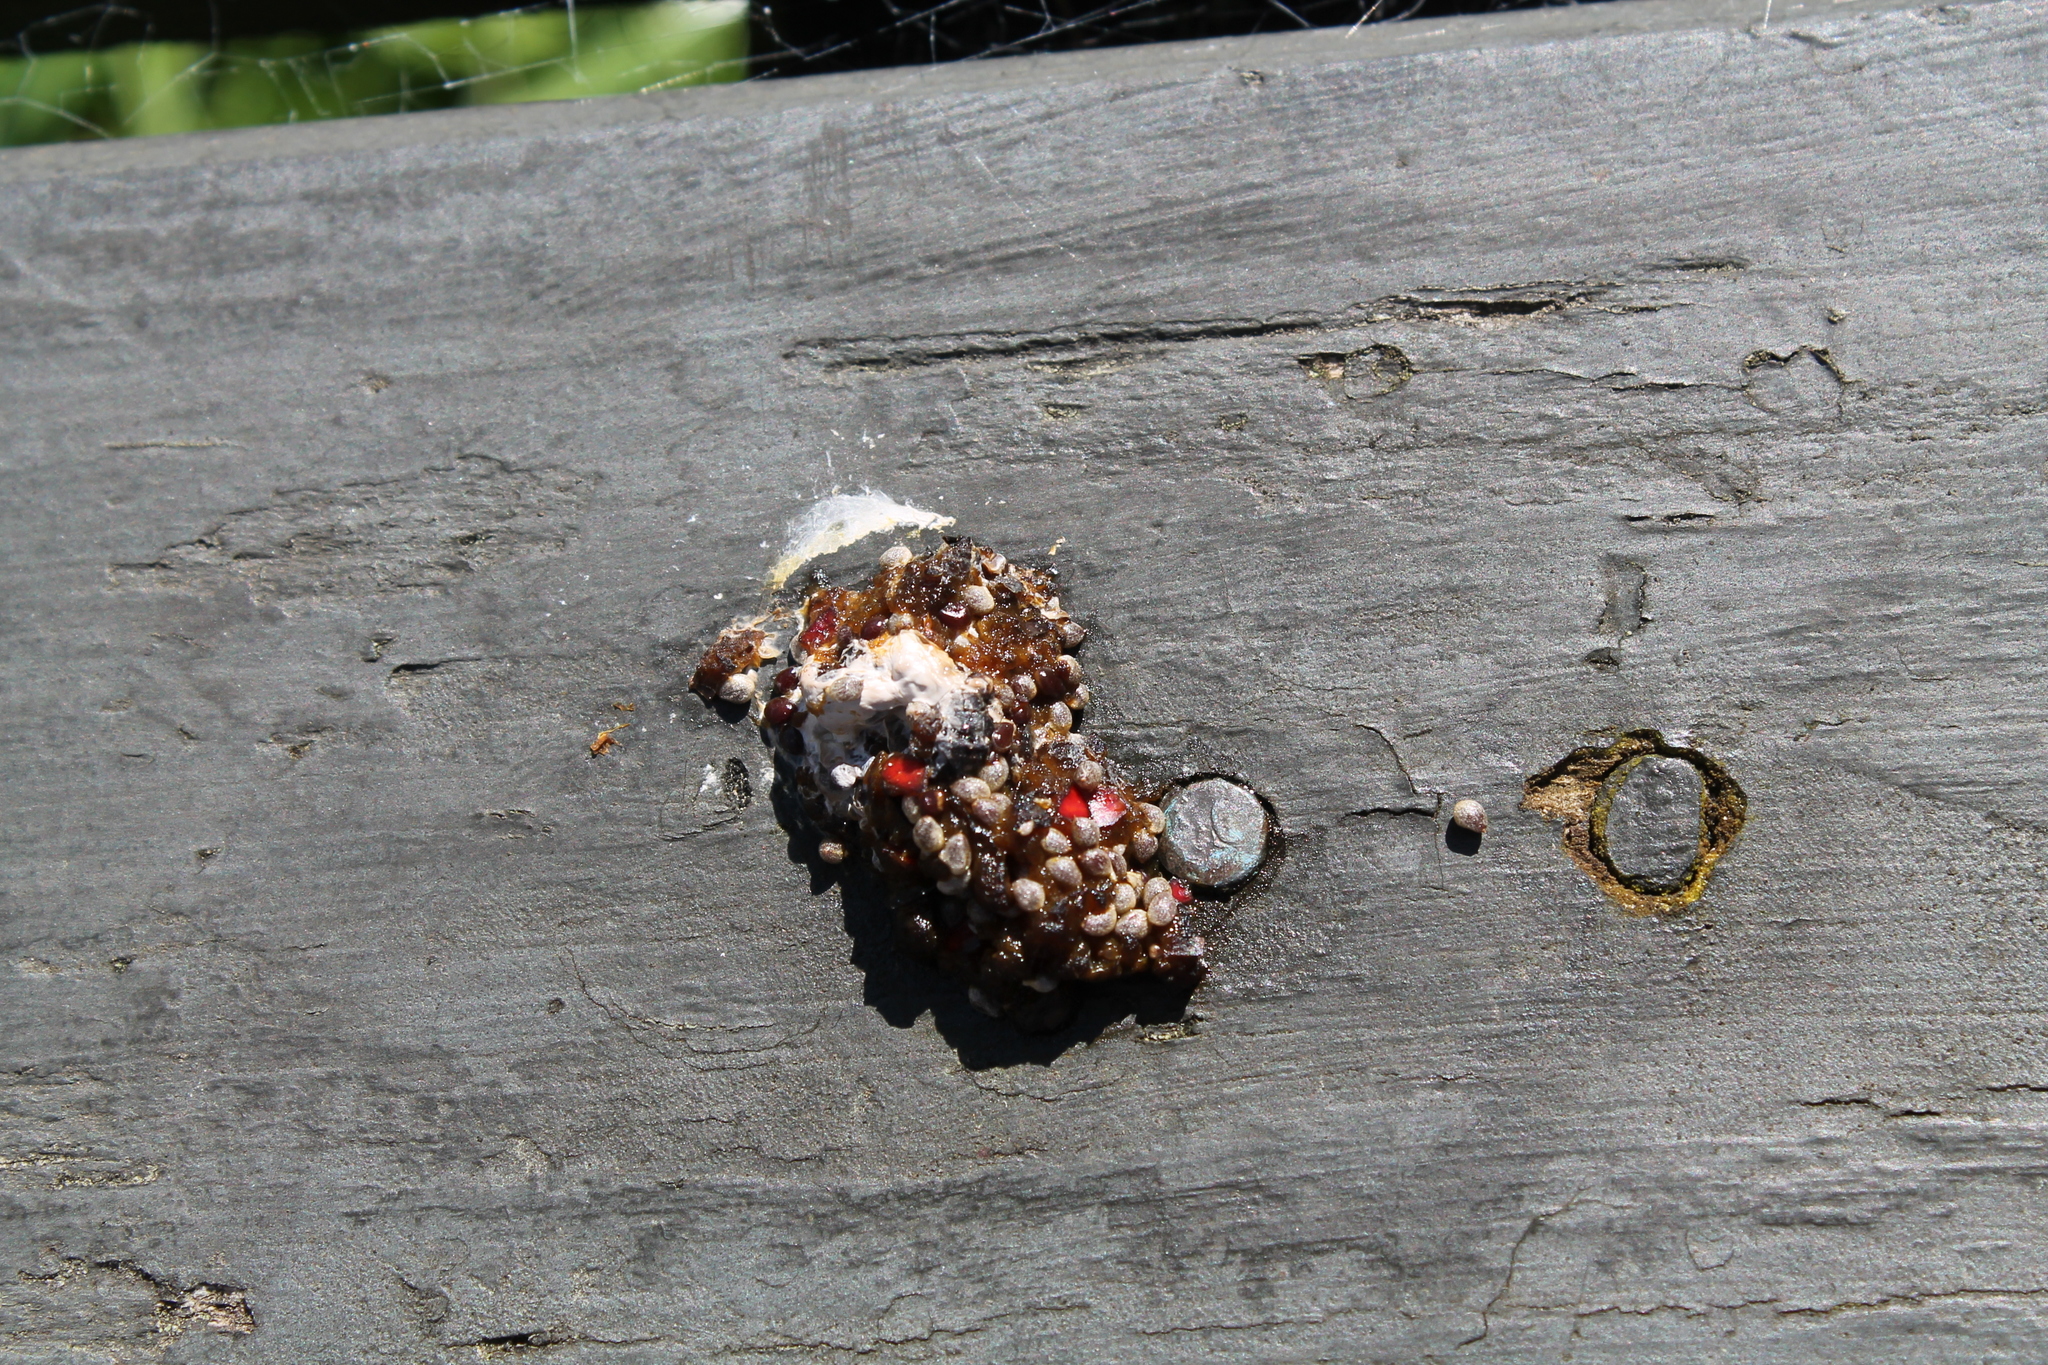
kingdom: Animalia
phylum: Chordata
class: Aves
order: Columbiformes
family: Columbidae
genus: Hemiphaga
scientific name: Hemiphaga novaeseelandiae
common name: New zealand pigeon
